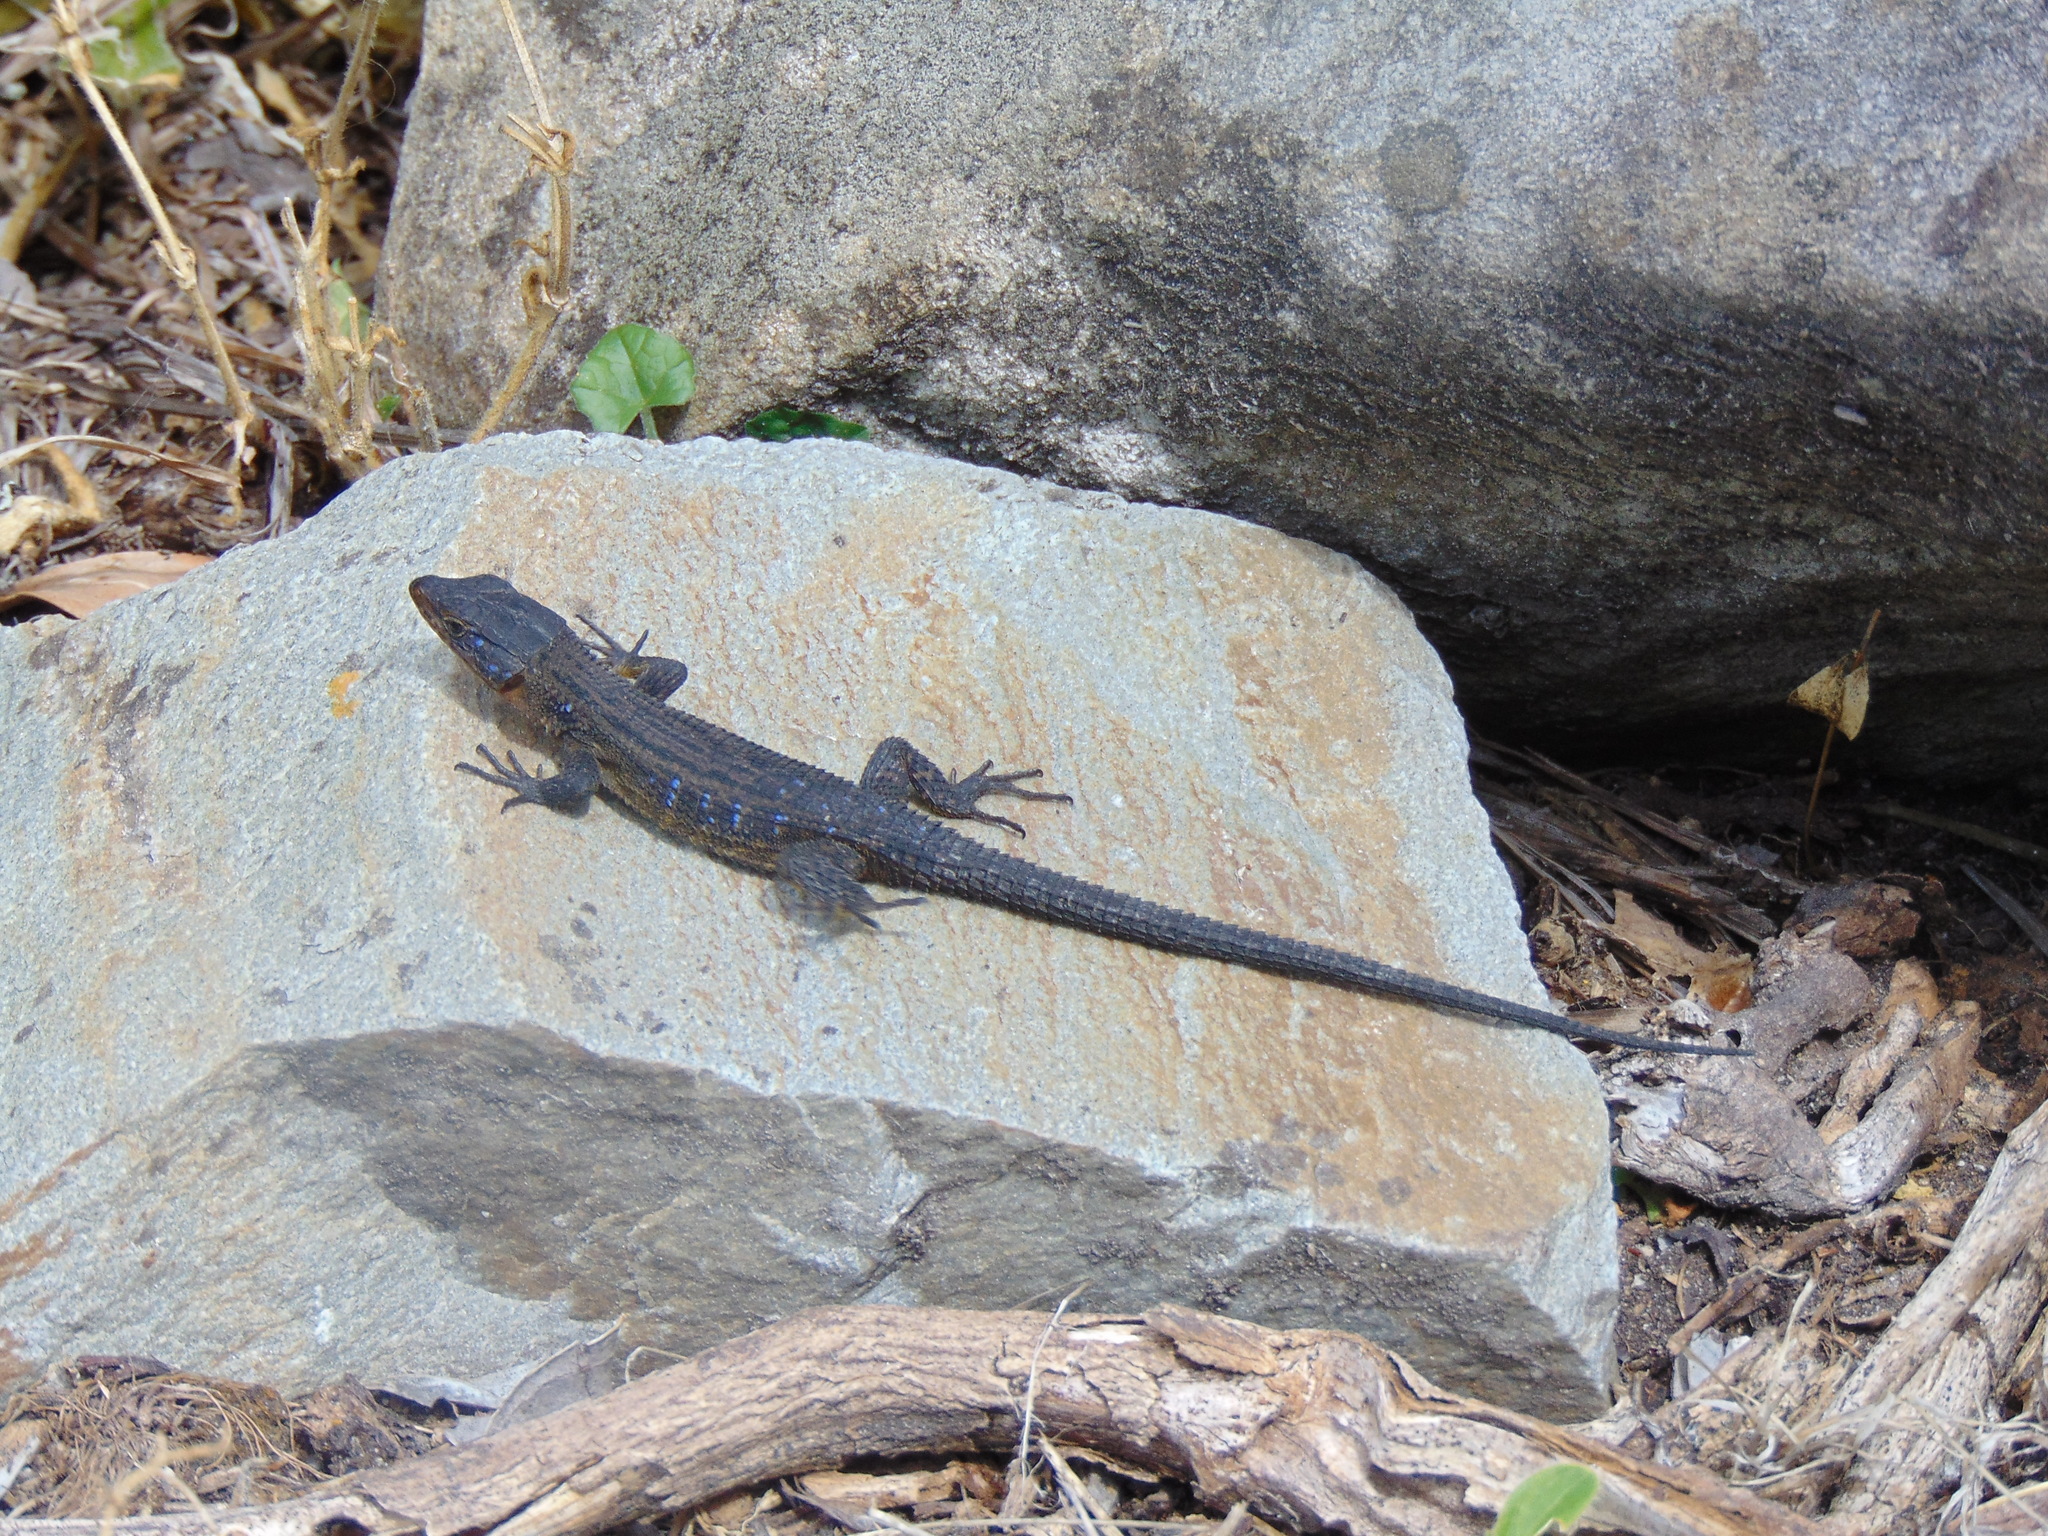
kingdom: Animalia
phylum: Chordata
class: Squamata
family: Cordylidae
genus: Ninurta
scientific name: Ninurta coeruleopunctatus
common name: Blue-spotted girdled lizard
